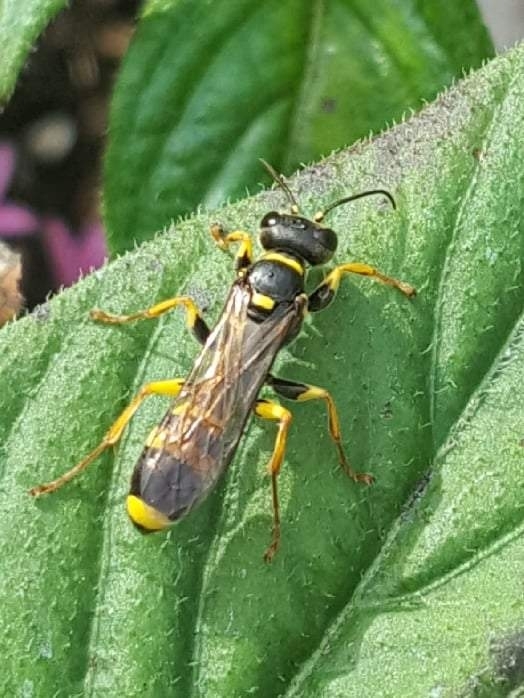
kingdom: Animalia
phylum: Arthropoda
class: Insecta
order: Hymenoptera
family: Crabronidae
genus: Mellinus
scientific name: Mellinus arvensis
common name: Field digger wasp
